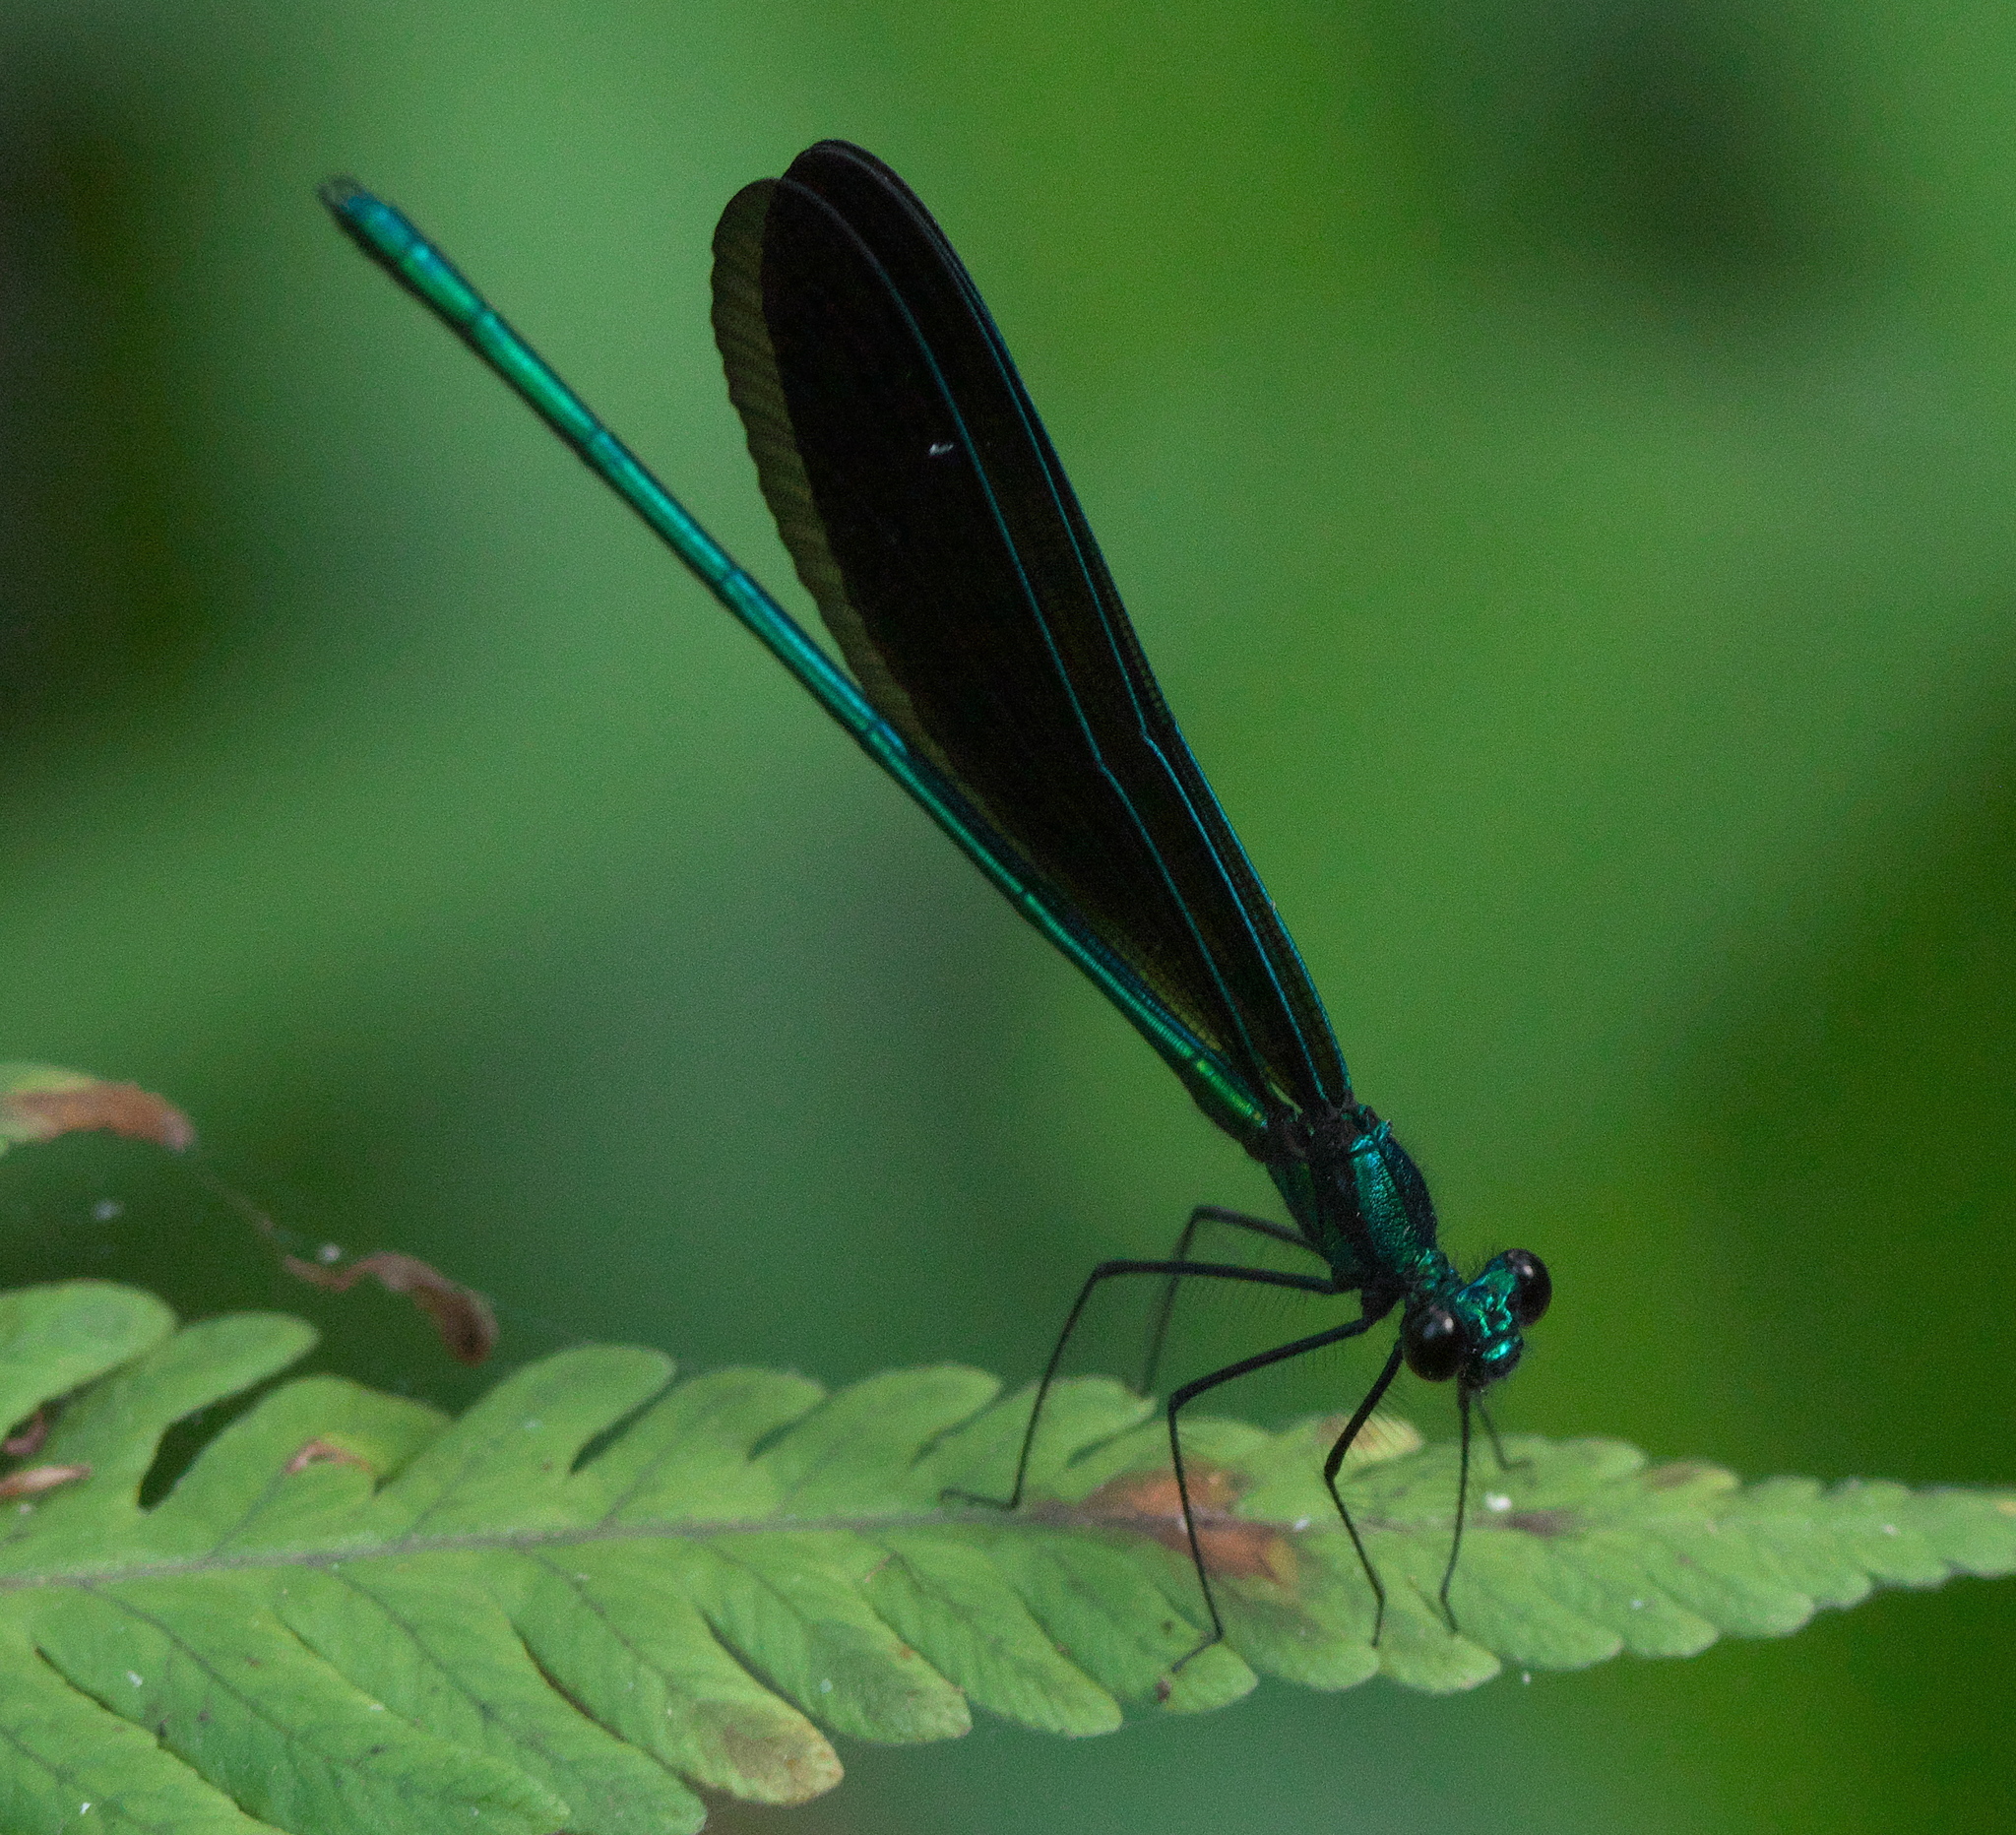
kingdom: Animalia
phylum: Arthropoda
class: Insecta
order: Odonata
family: Calopterygidae
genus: Calopteryx
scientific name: Calopteryx maculata
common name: Ebony jewelwing
